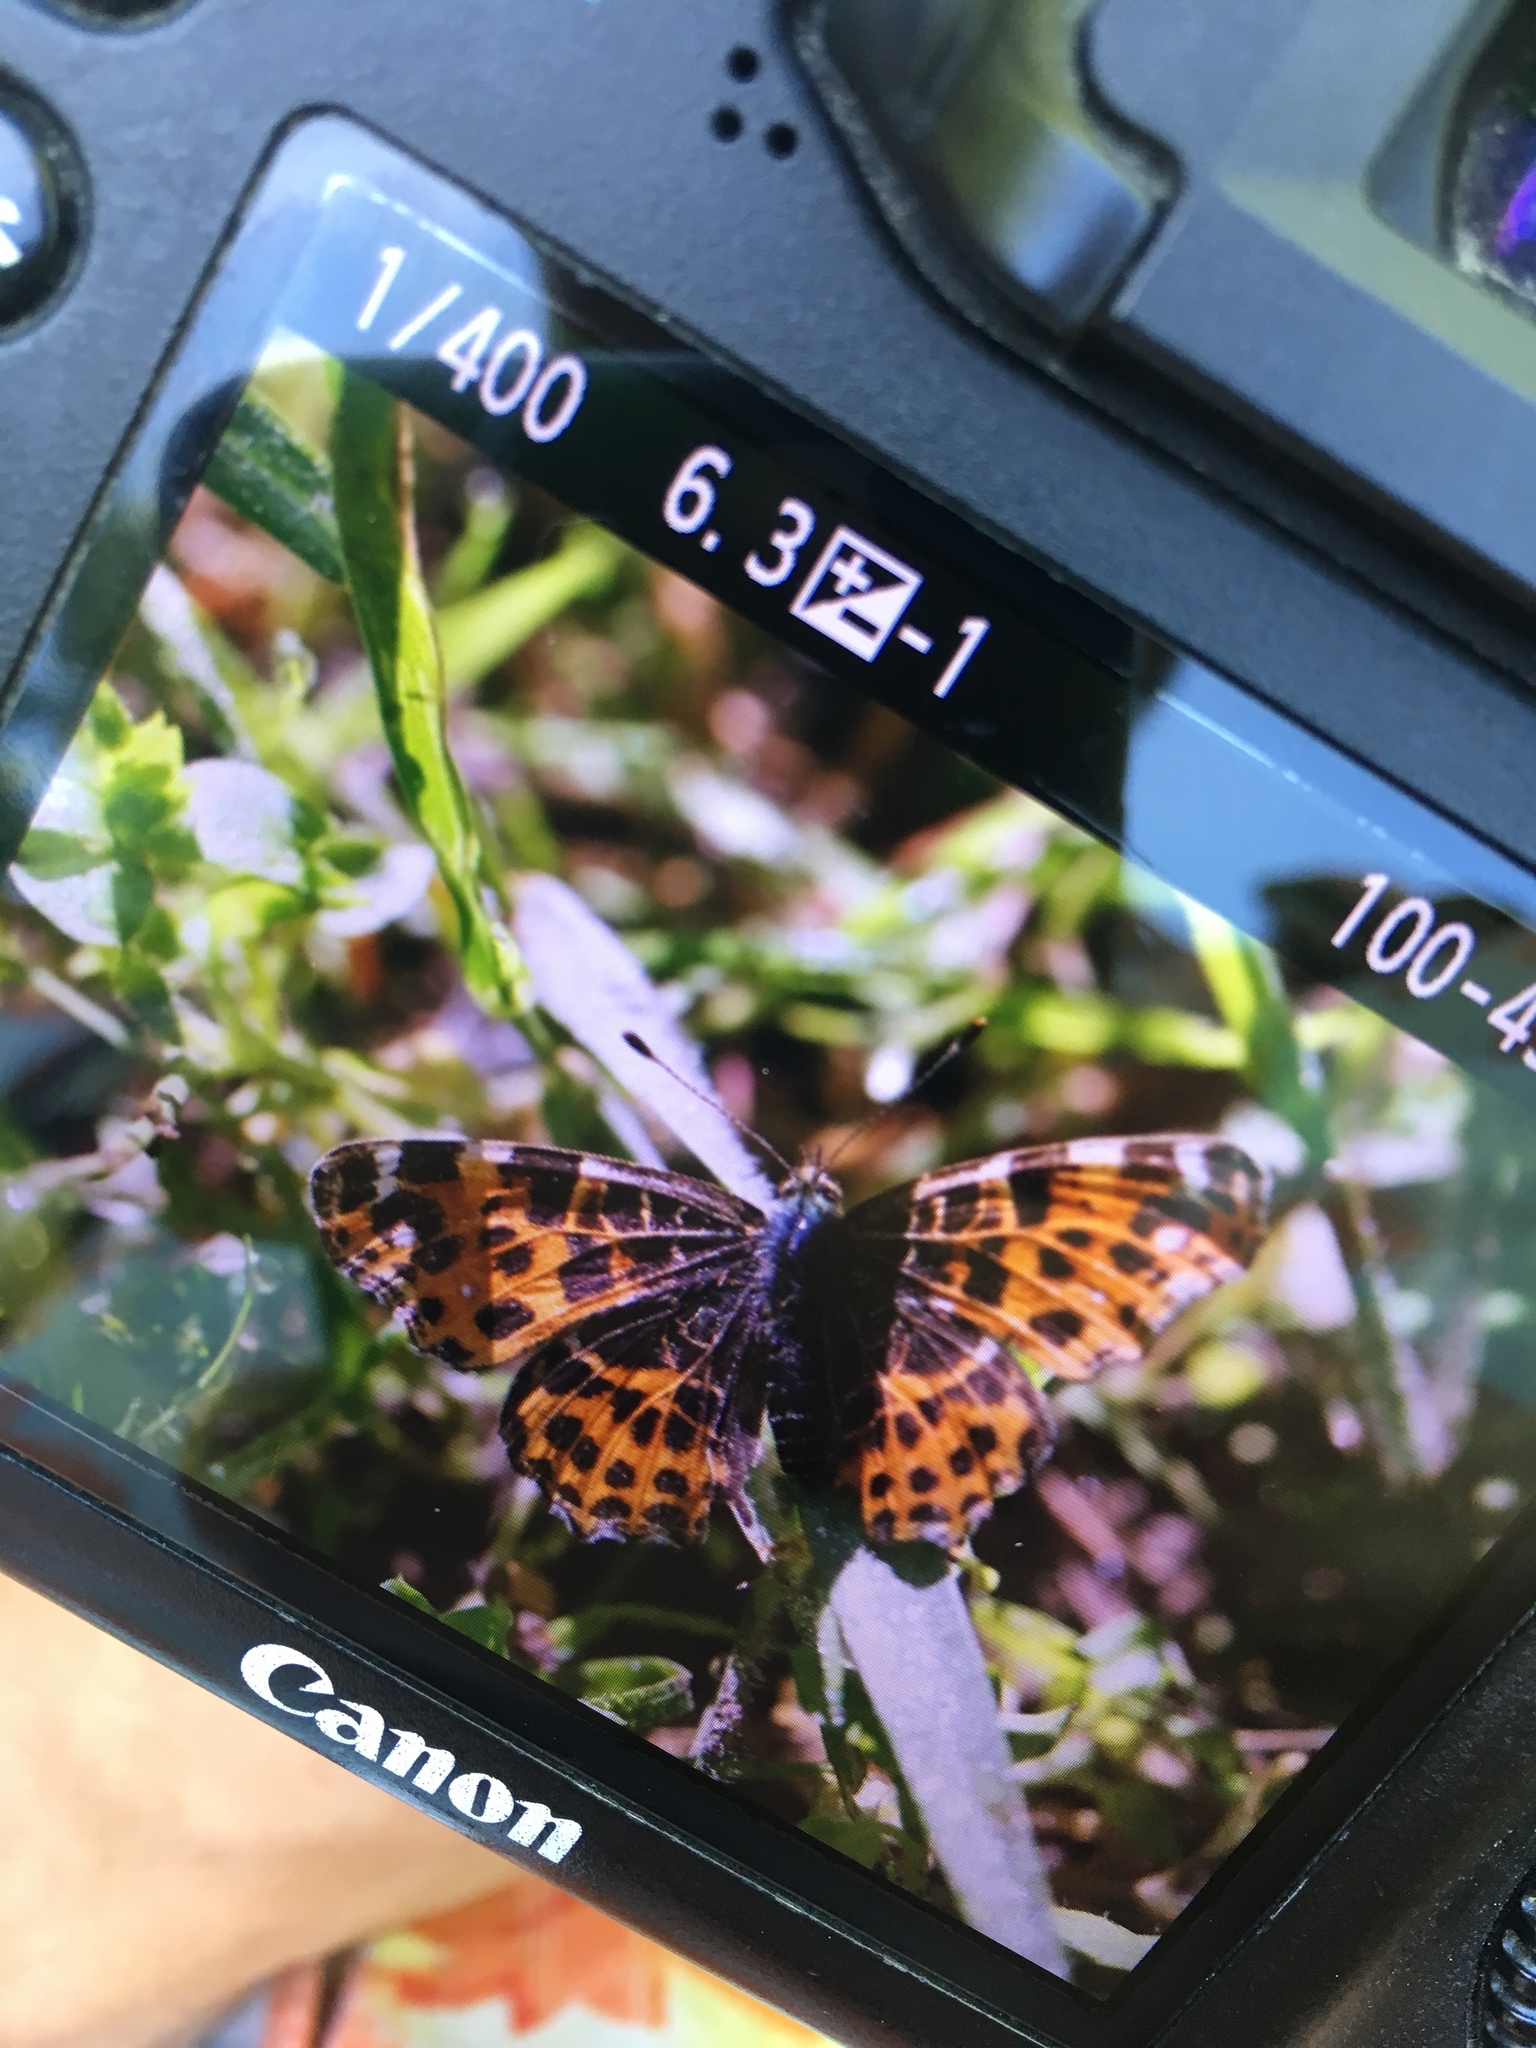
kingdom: Animalia
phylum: Arthropoda
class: Insecta
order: Lepidoptera
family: Nymphalidae
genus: Araschnia
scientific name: Araschnia levana
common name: Map butterfly
